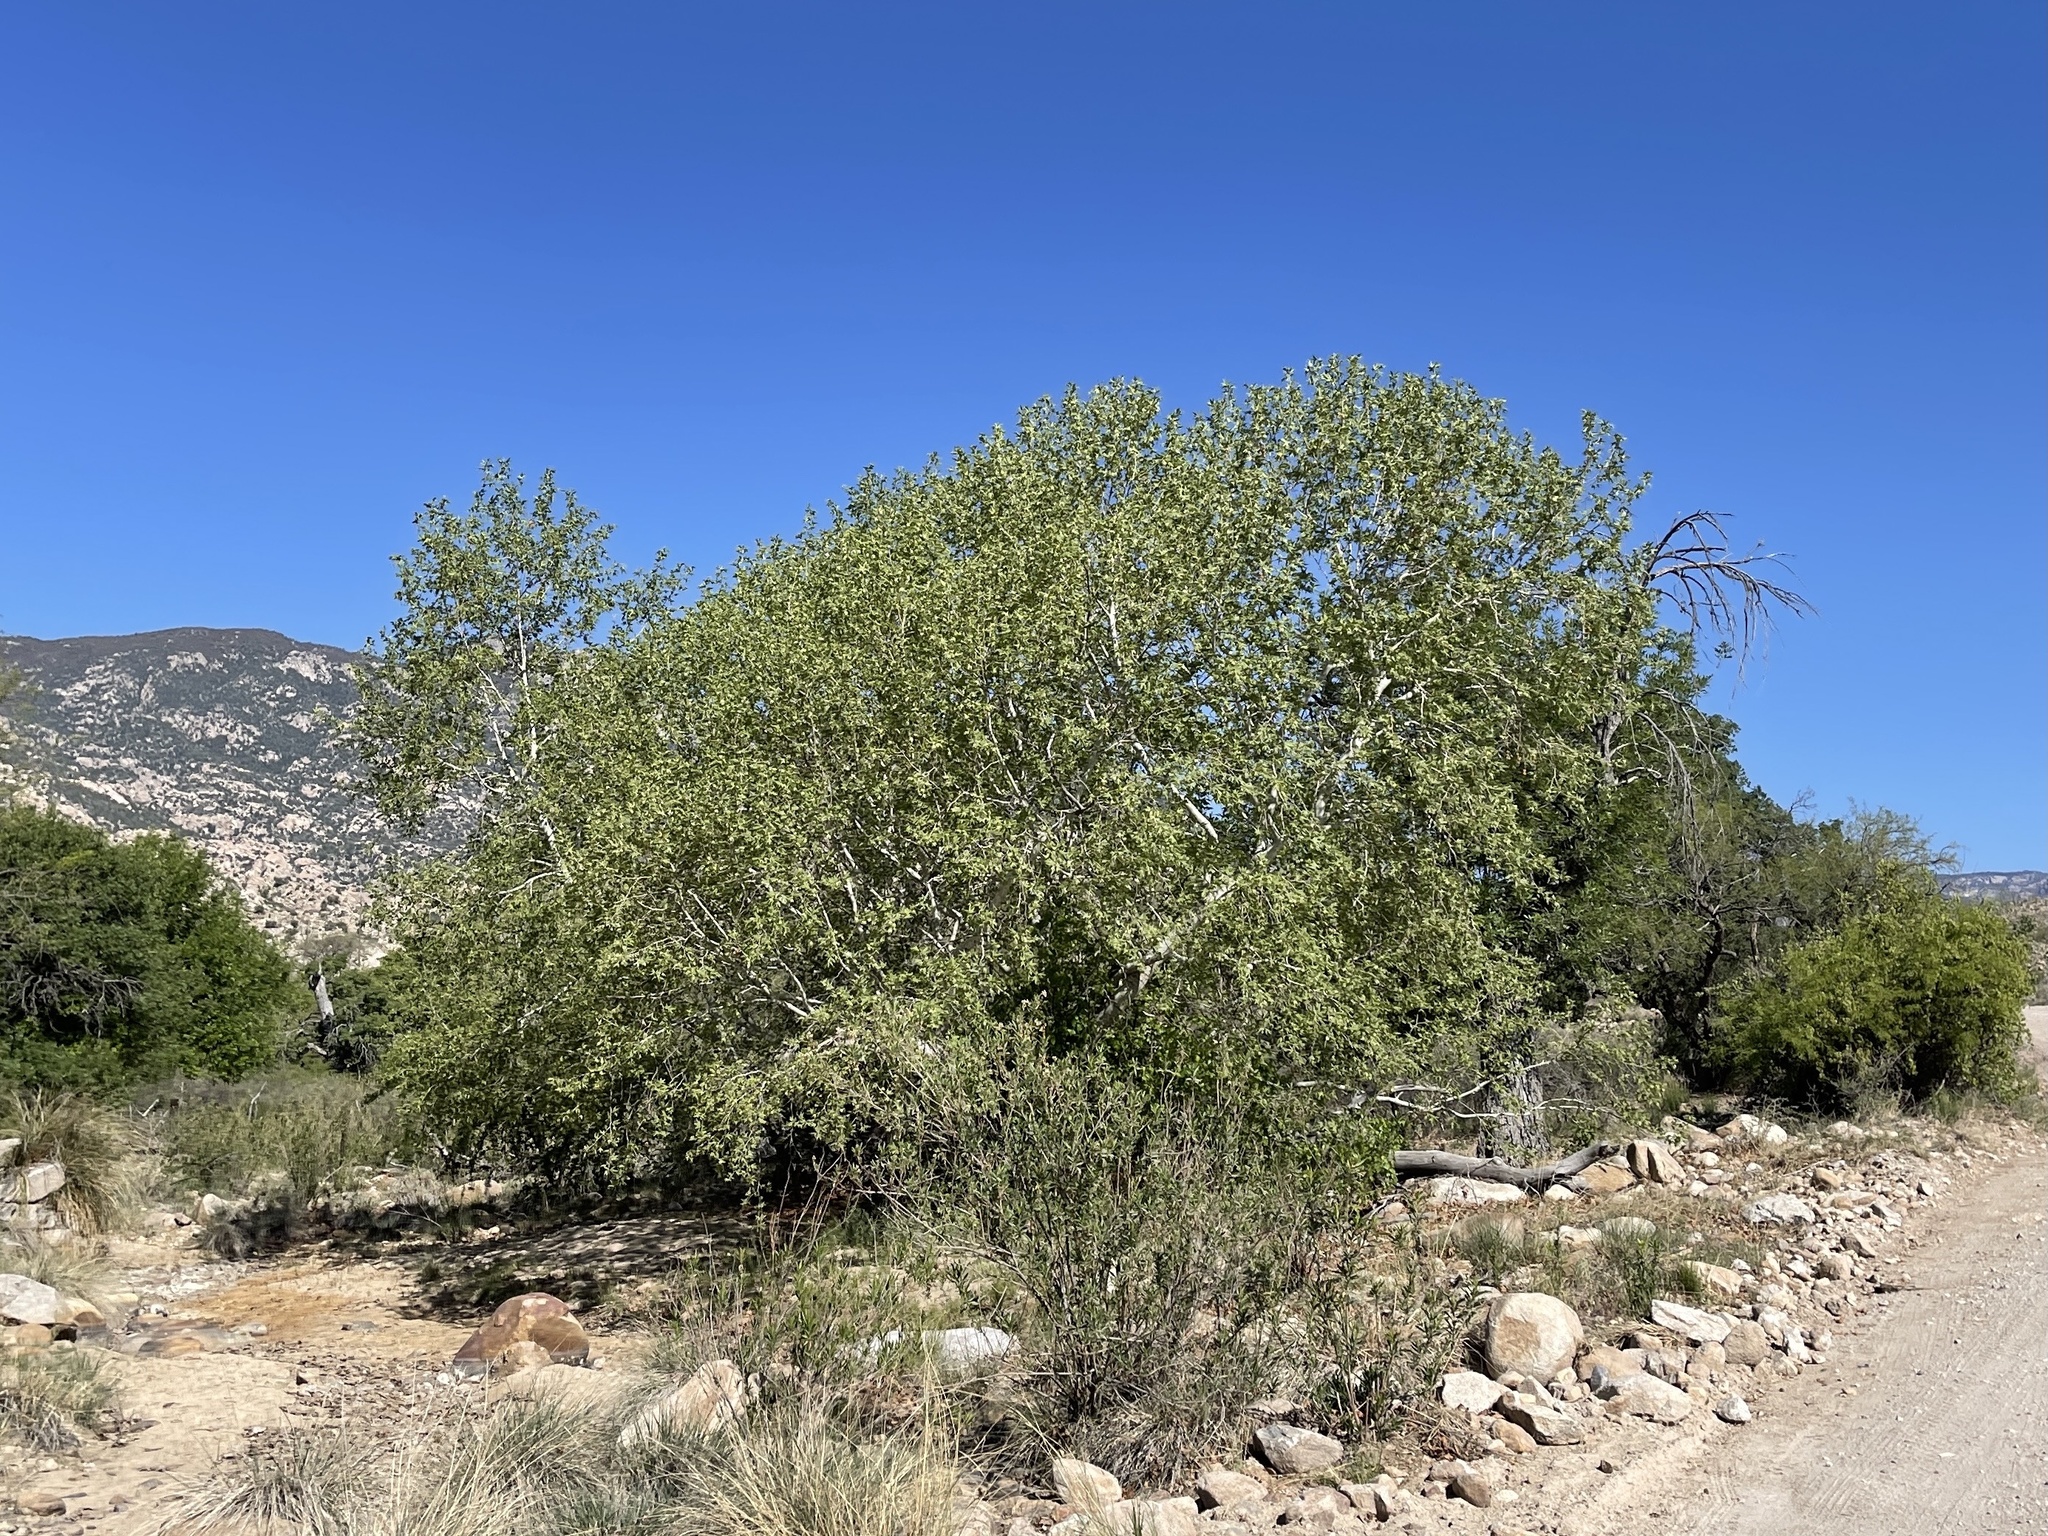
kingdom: Plantae
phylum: Tracheophyta
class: Magnoliopsida
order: Proteales
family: Platanaceae
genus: Platanus
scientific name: Platanus wrightii
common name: Arizona sycamore
